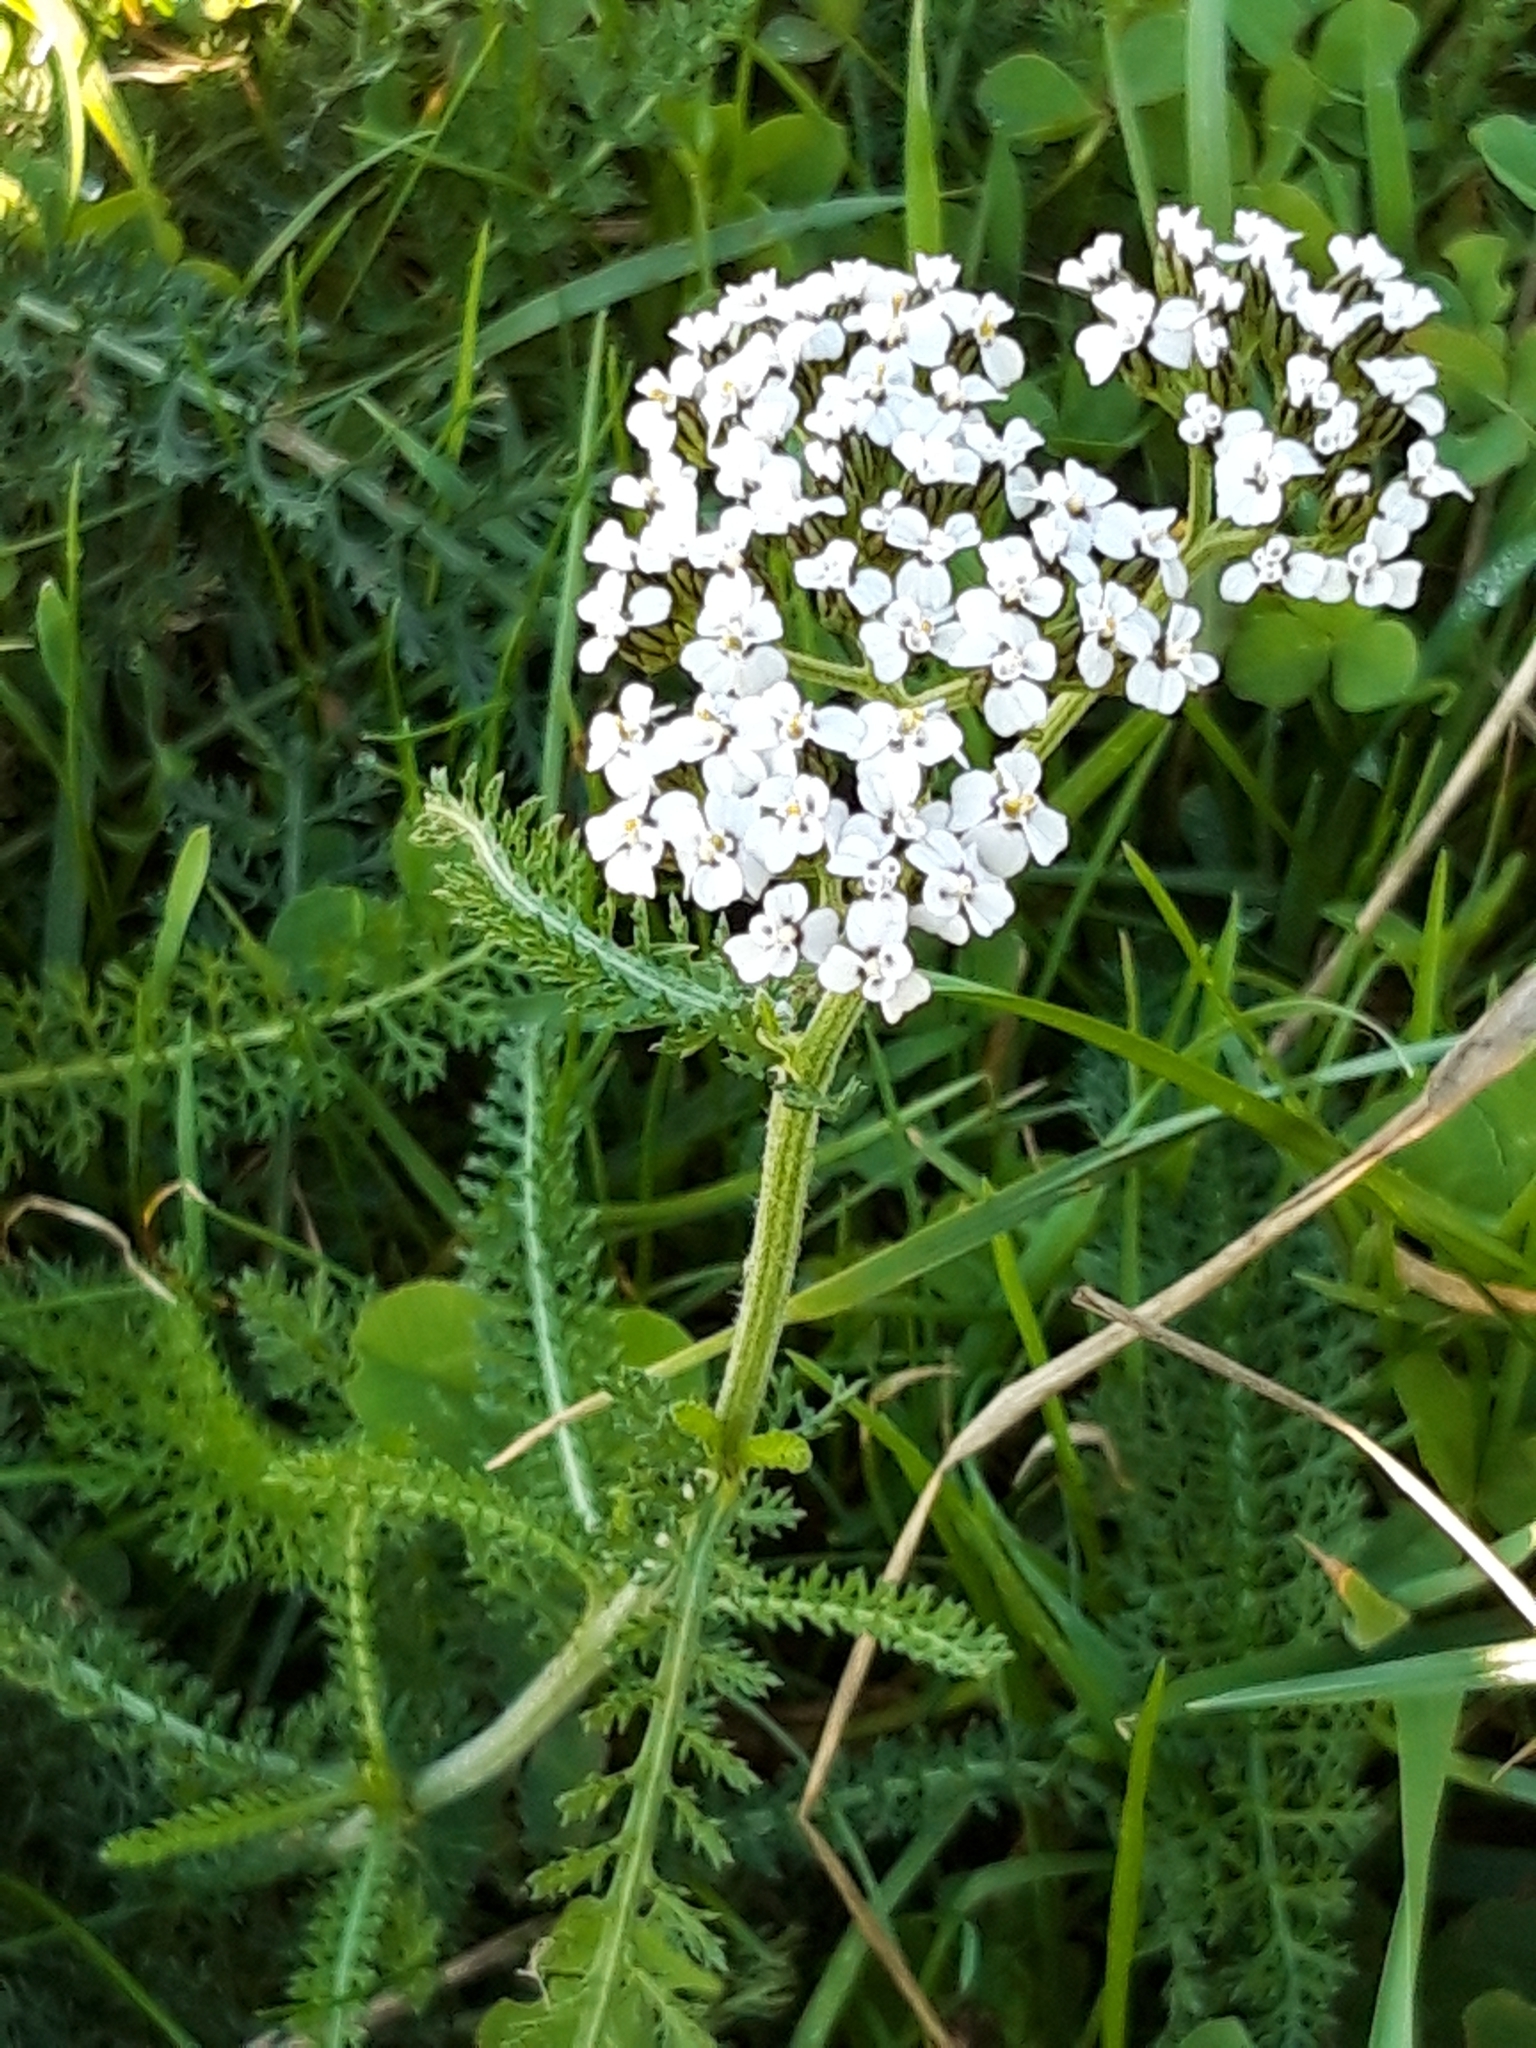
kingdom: Plantae
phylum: Tracheophyta
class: Magnoliopsida
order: Asterales
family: Asteraceae
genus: Achillea
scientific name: Achillea millefolium
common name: Yarrow
